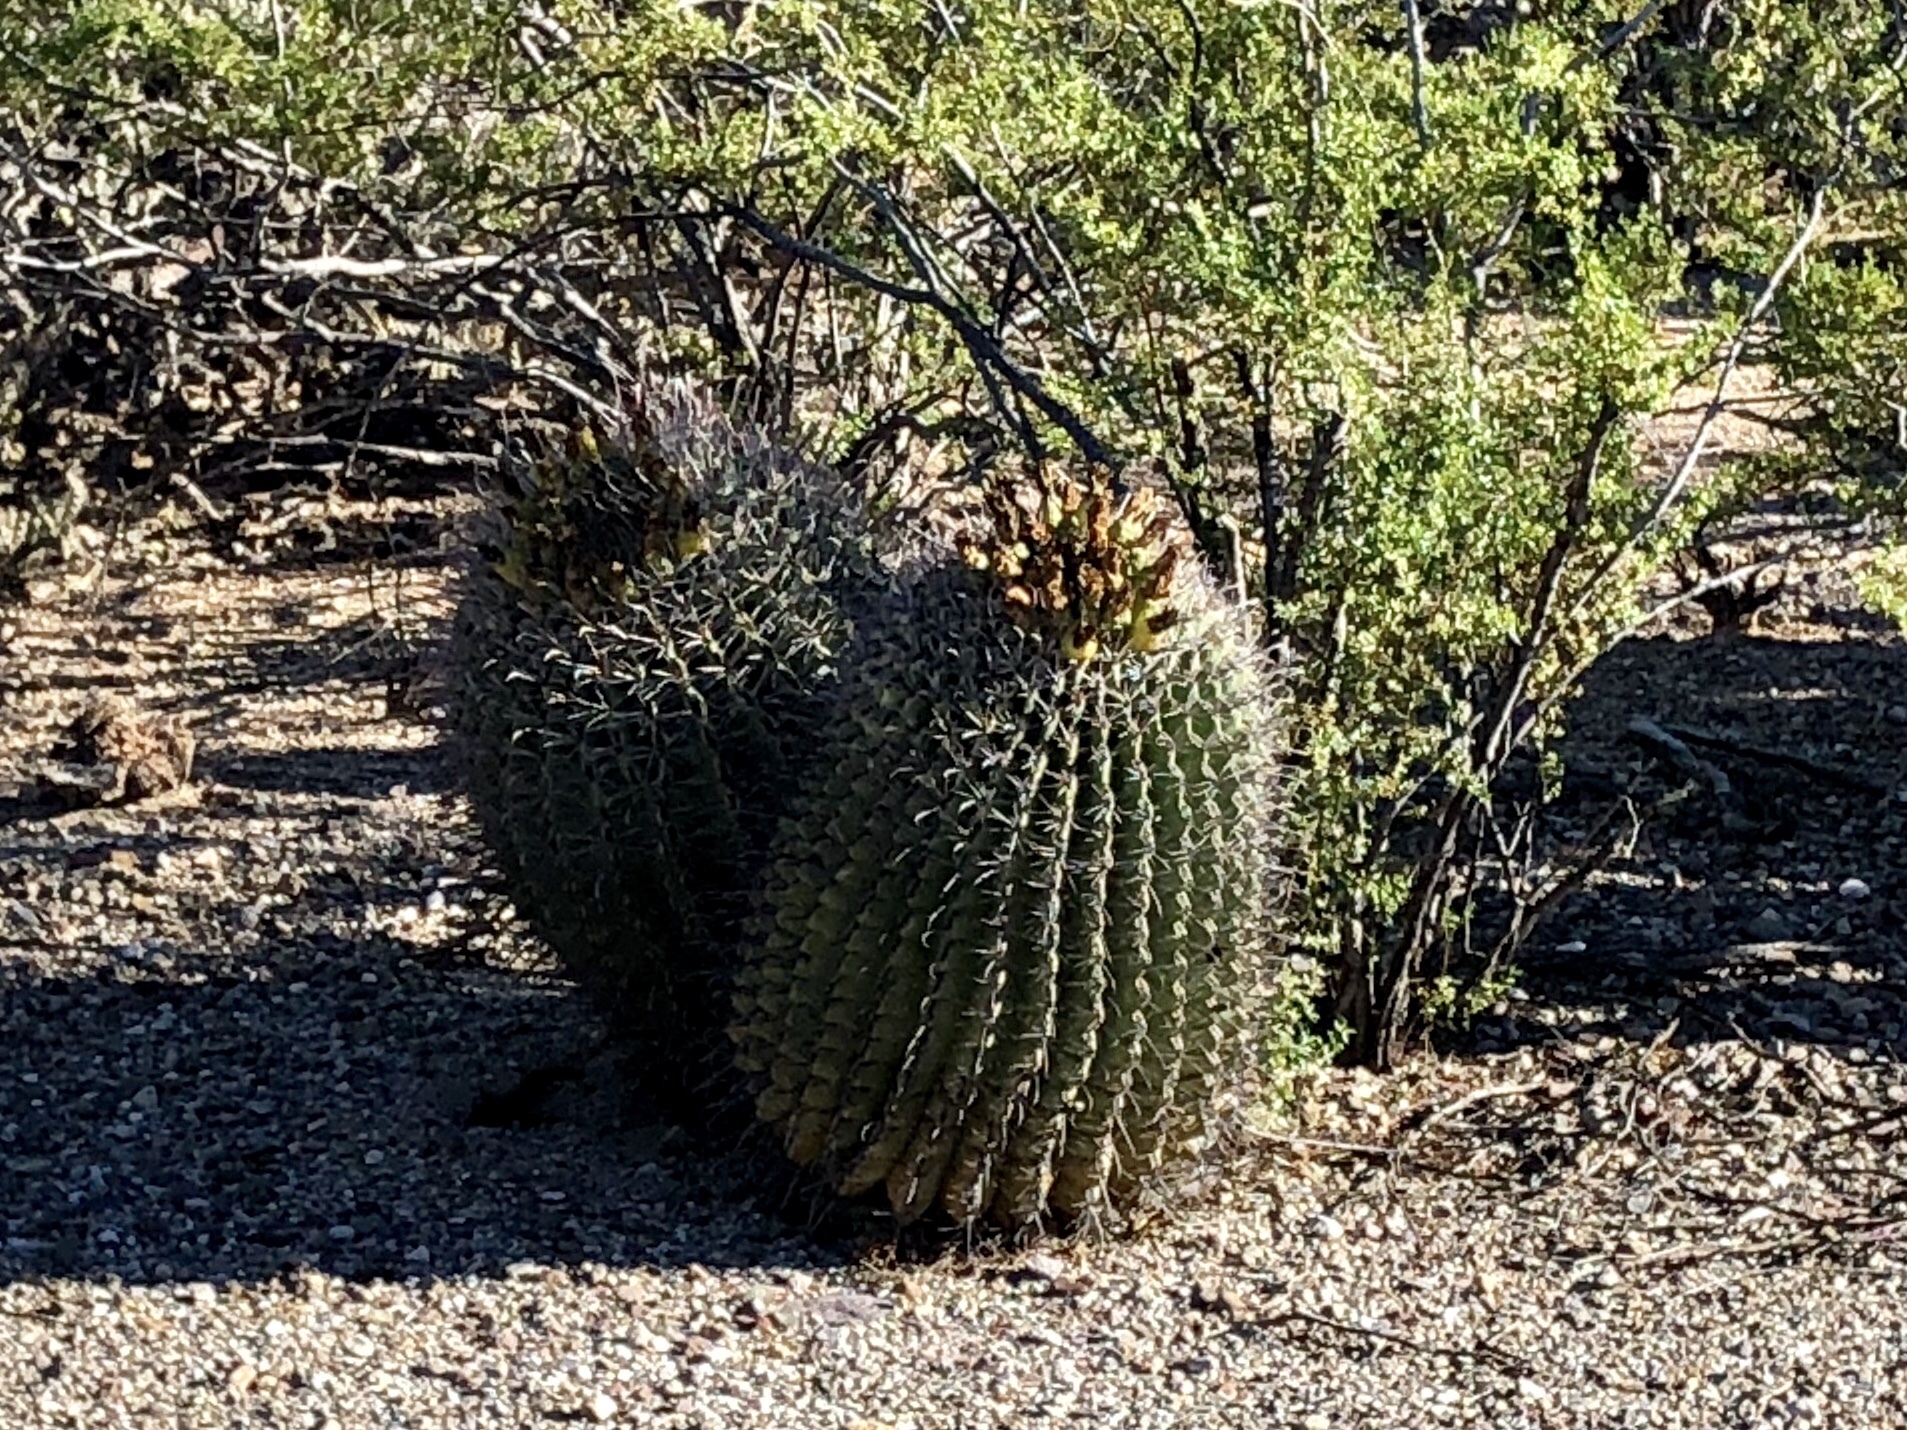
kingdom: Plantae
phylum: Tracheophyta
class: Magnoliopsida
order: Caryophyllales
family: Cactaceae
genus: Ferocactus
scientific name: Ferocactus wislizeni
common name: Candy barrel cactus
